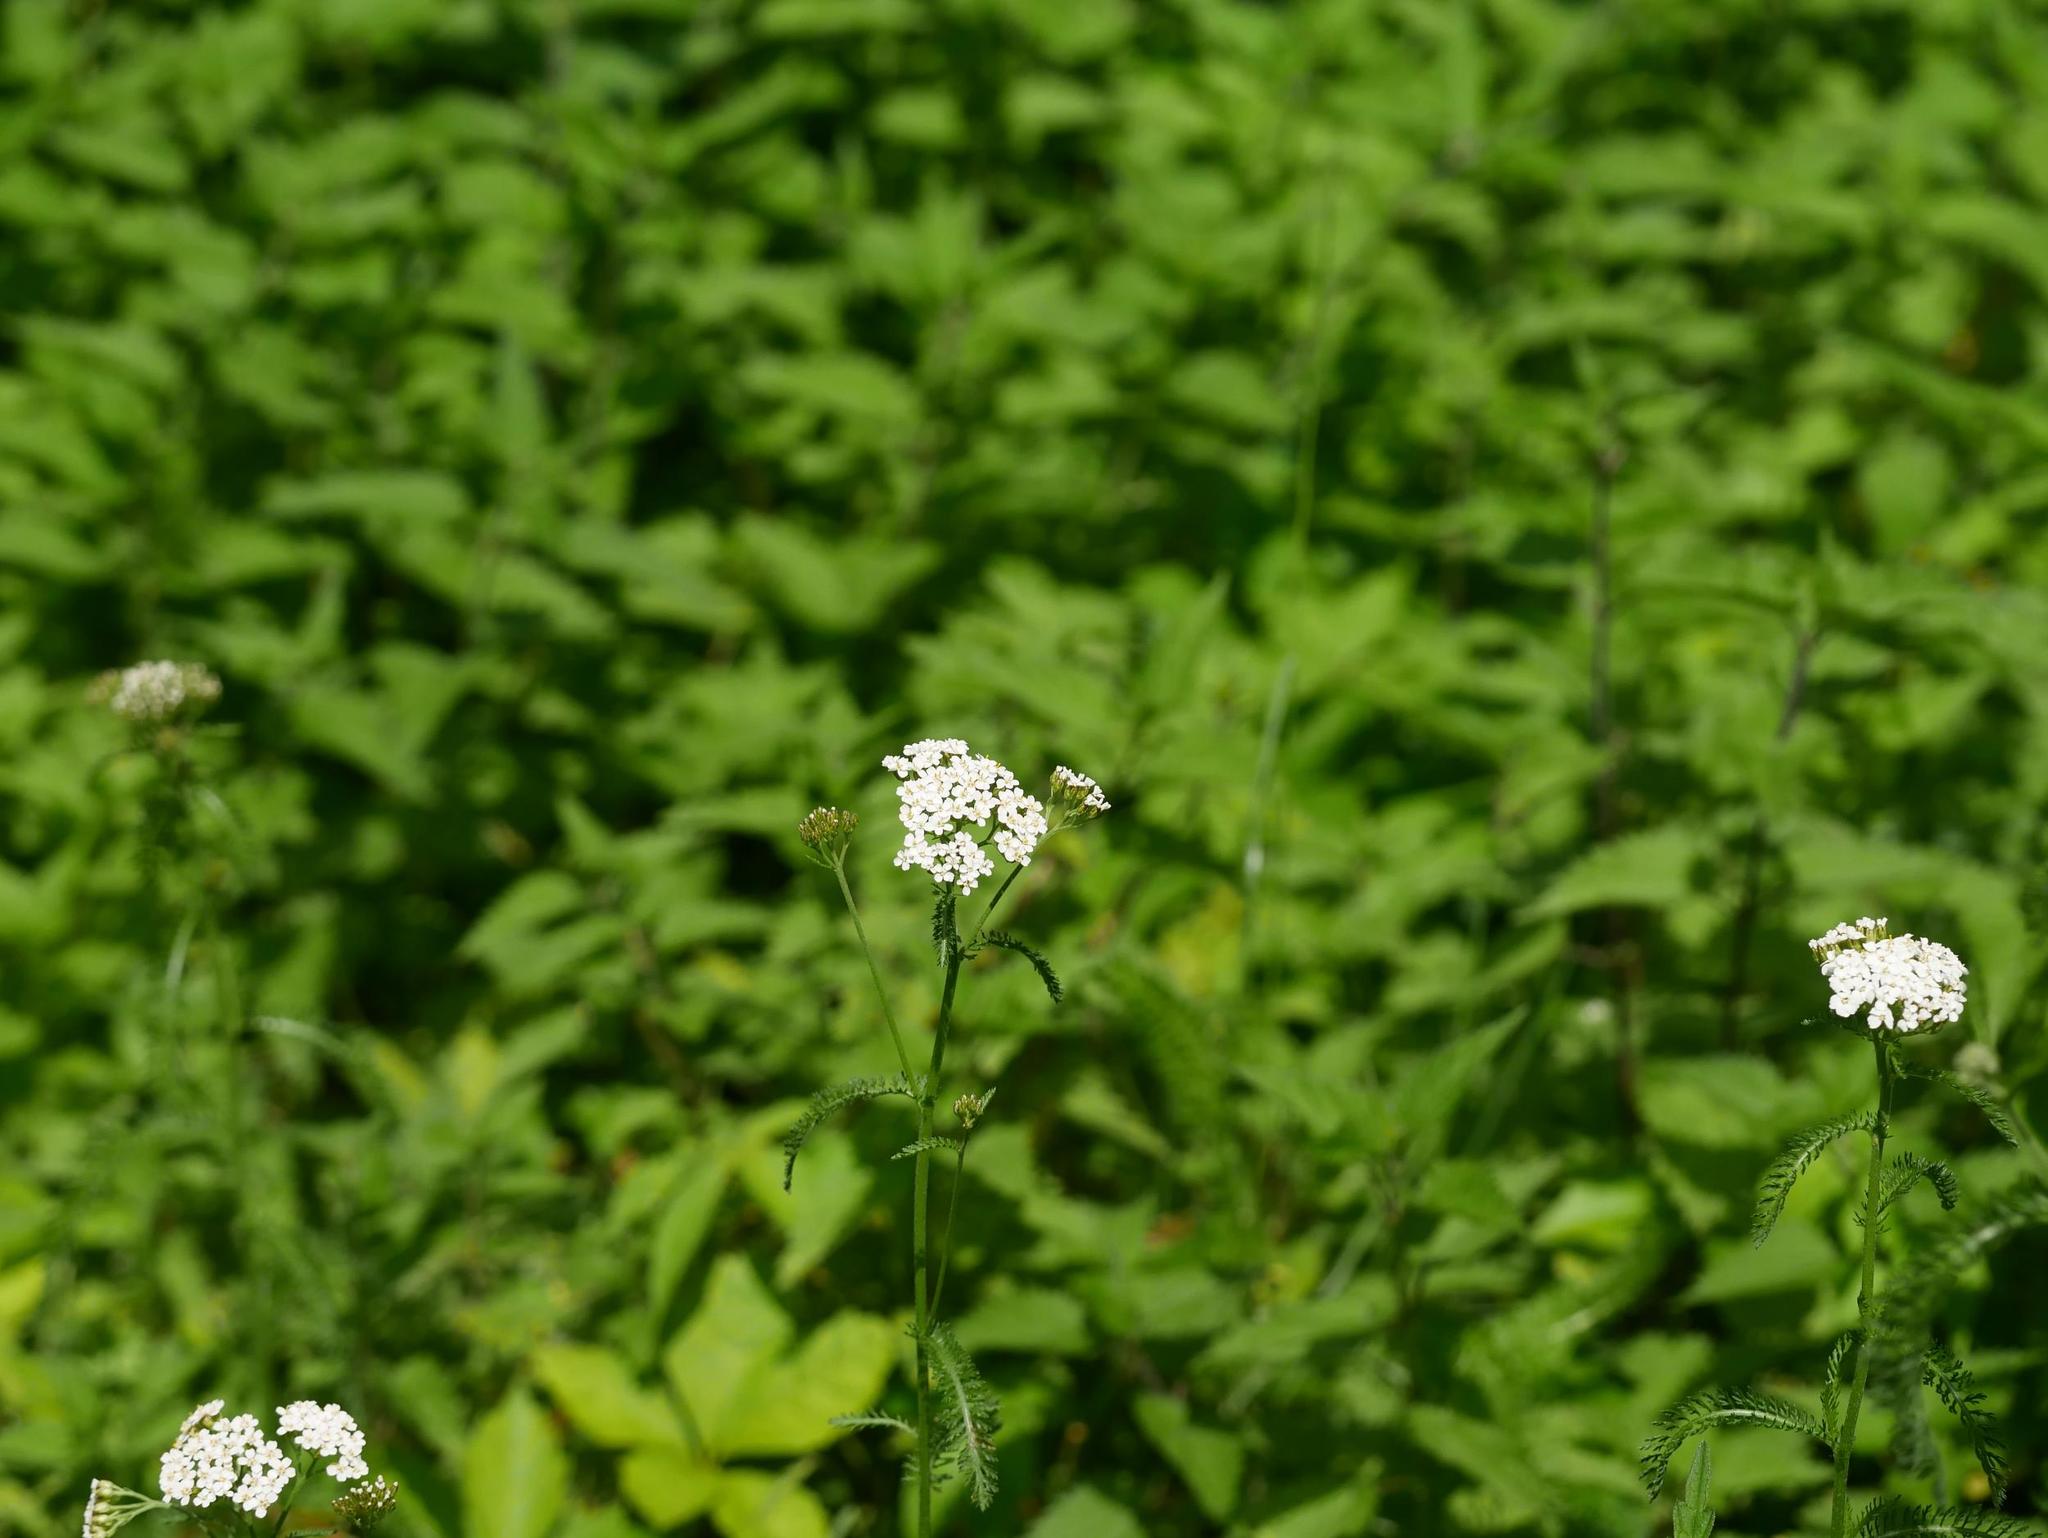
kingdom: Plantae
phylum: Tracheophyta
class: Magnoliopsida
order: Asterales
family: Asteraceae
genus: Achillea
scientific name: Achillea millefolium
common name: Yarrow
